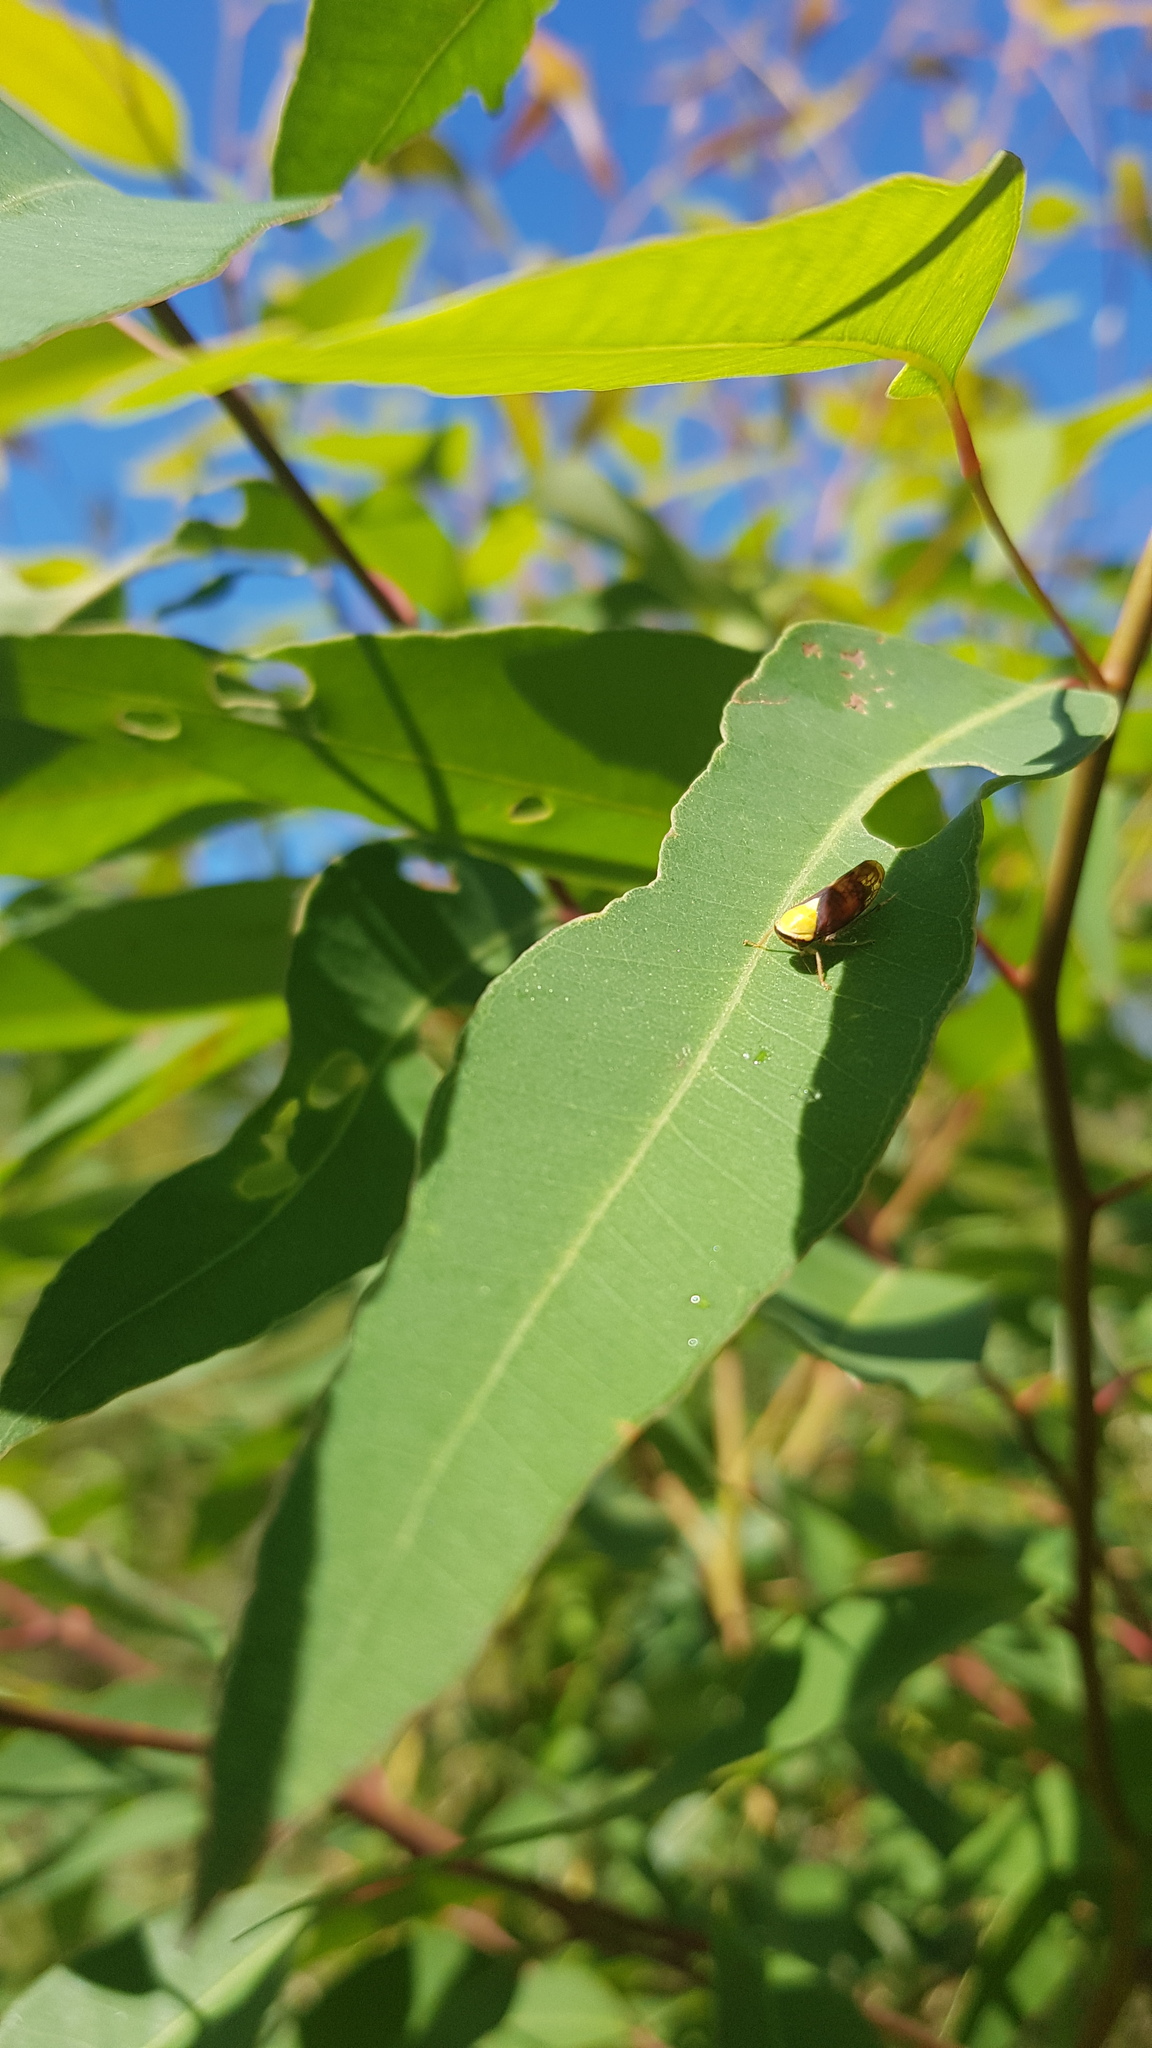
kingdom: Animalia
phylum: Arthropoda
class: Insecta
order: Hemiptera
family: Cicadellidae
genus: Brunotartessus
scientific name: Brunotartessus fulvus
